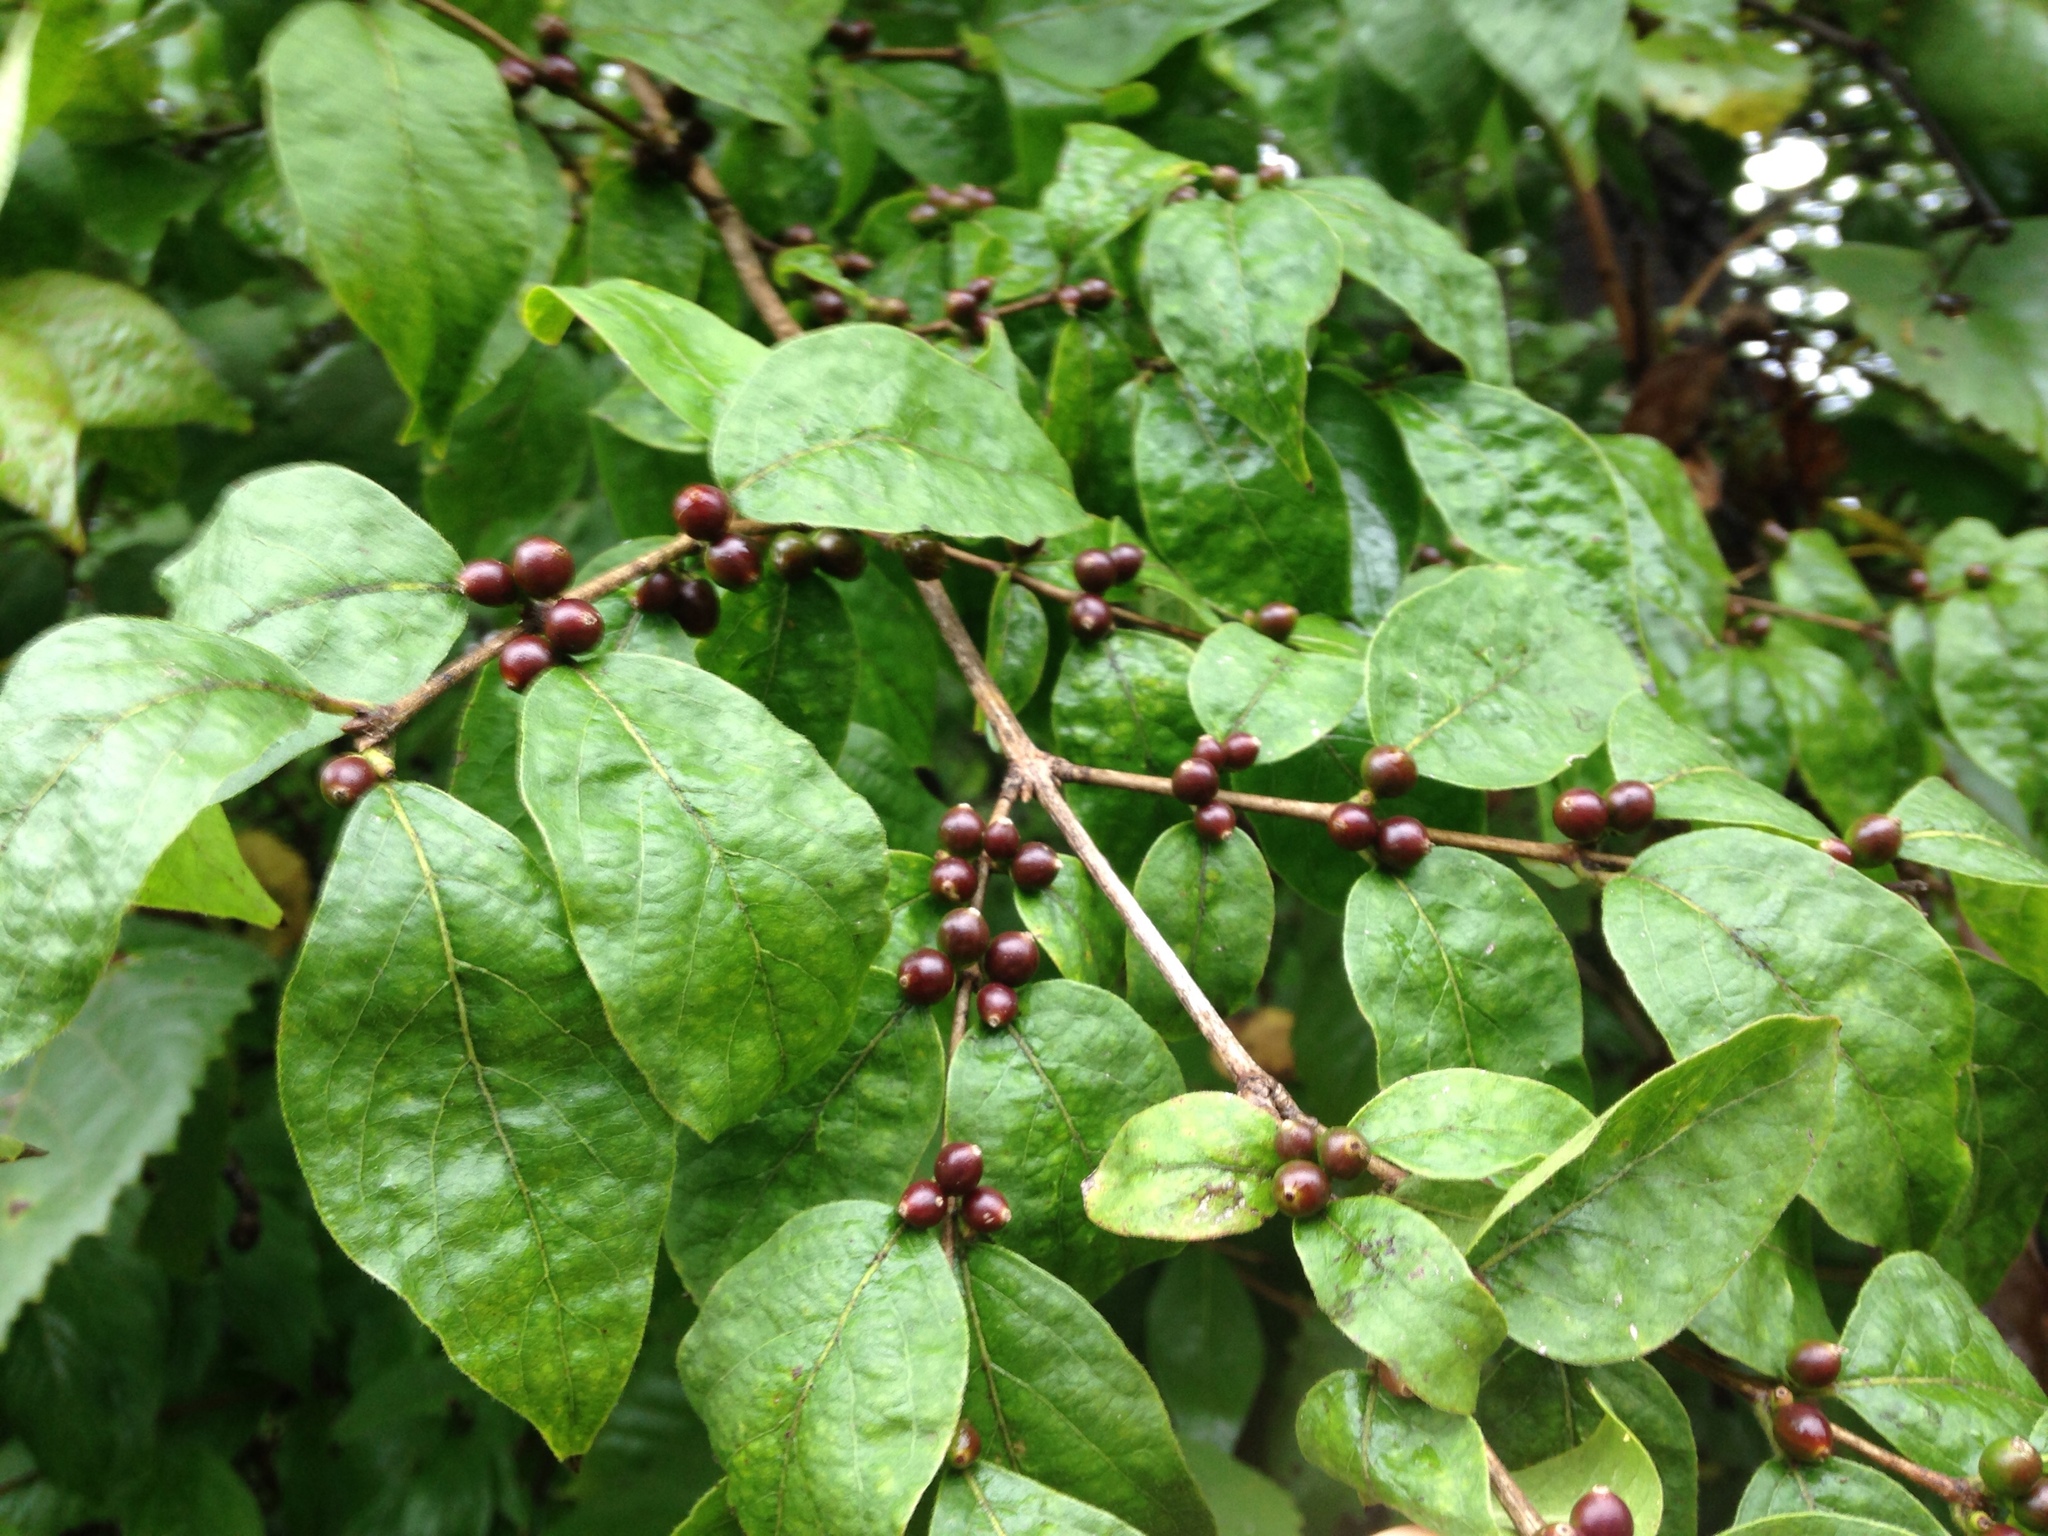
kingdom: Plantae
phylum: Tracheophyta
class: Magnoliopsida
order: Dipsacales
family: Caprifoliaceae
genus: Lonicera
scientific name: Lonicera maackii
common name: Amur honeysuckle
